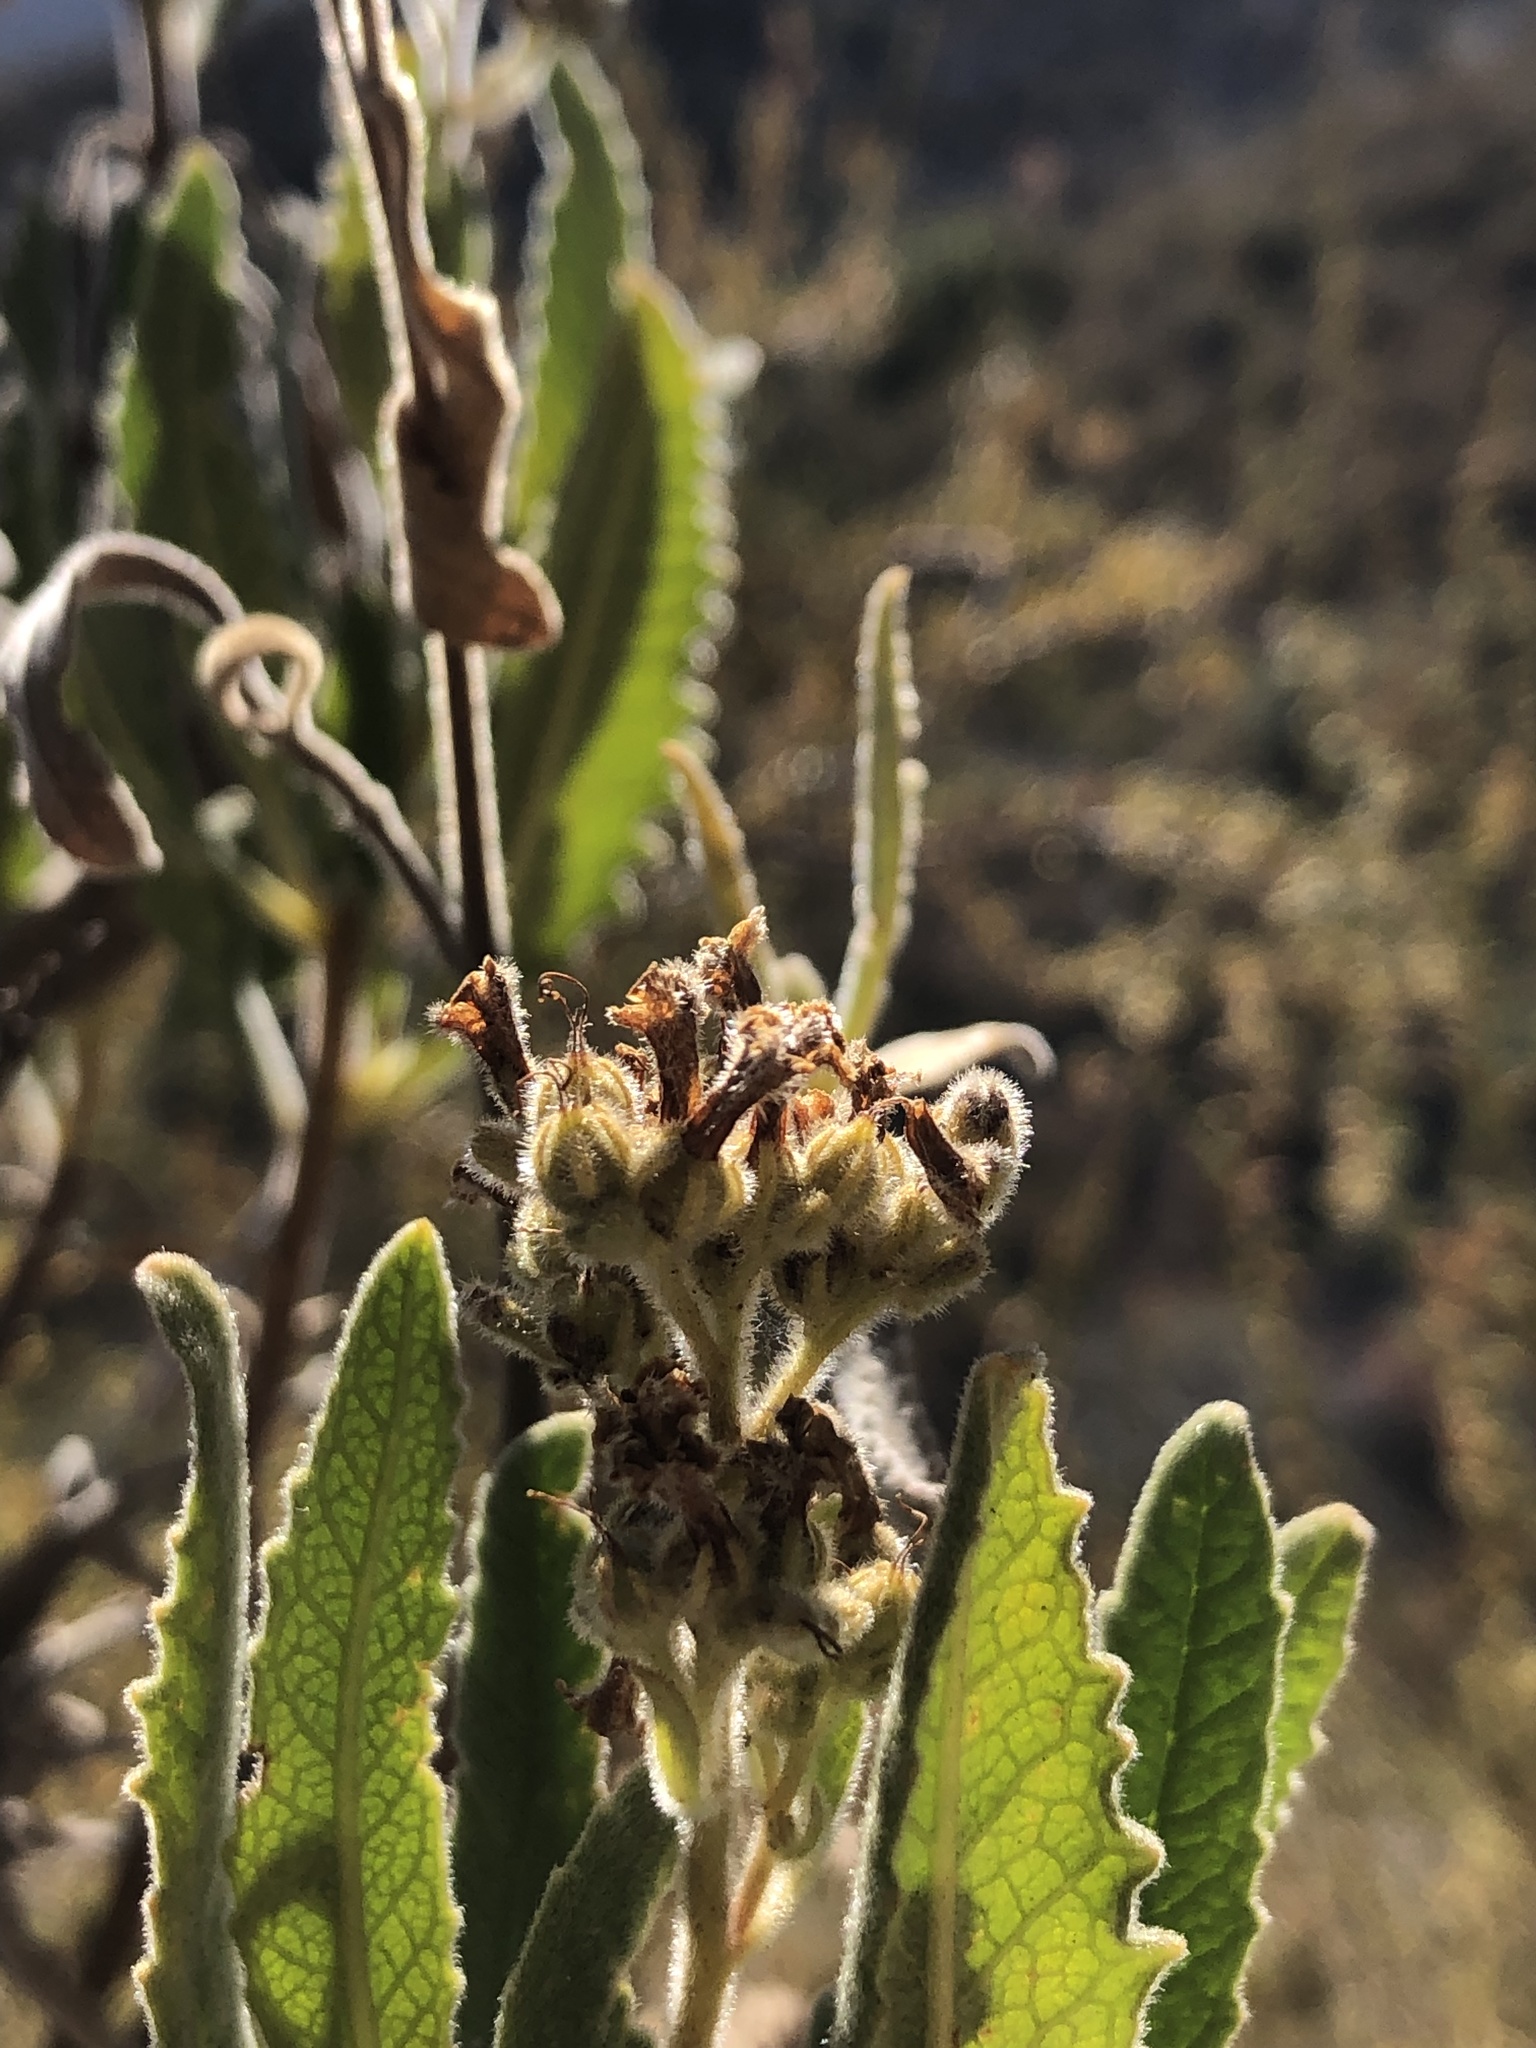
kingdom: Plantae
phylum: Tracheophyta
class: Magnoliopsida
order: Boraginales
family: Namaceae
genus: Eriodictyon
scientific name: Eriodictyon crassifolium
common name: Thick-leaf yerba-santa
